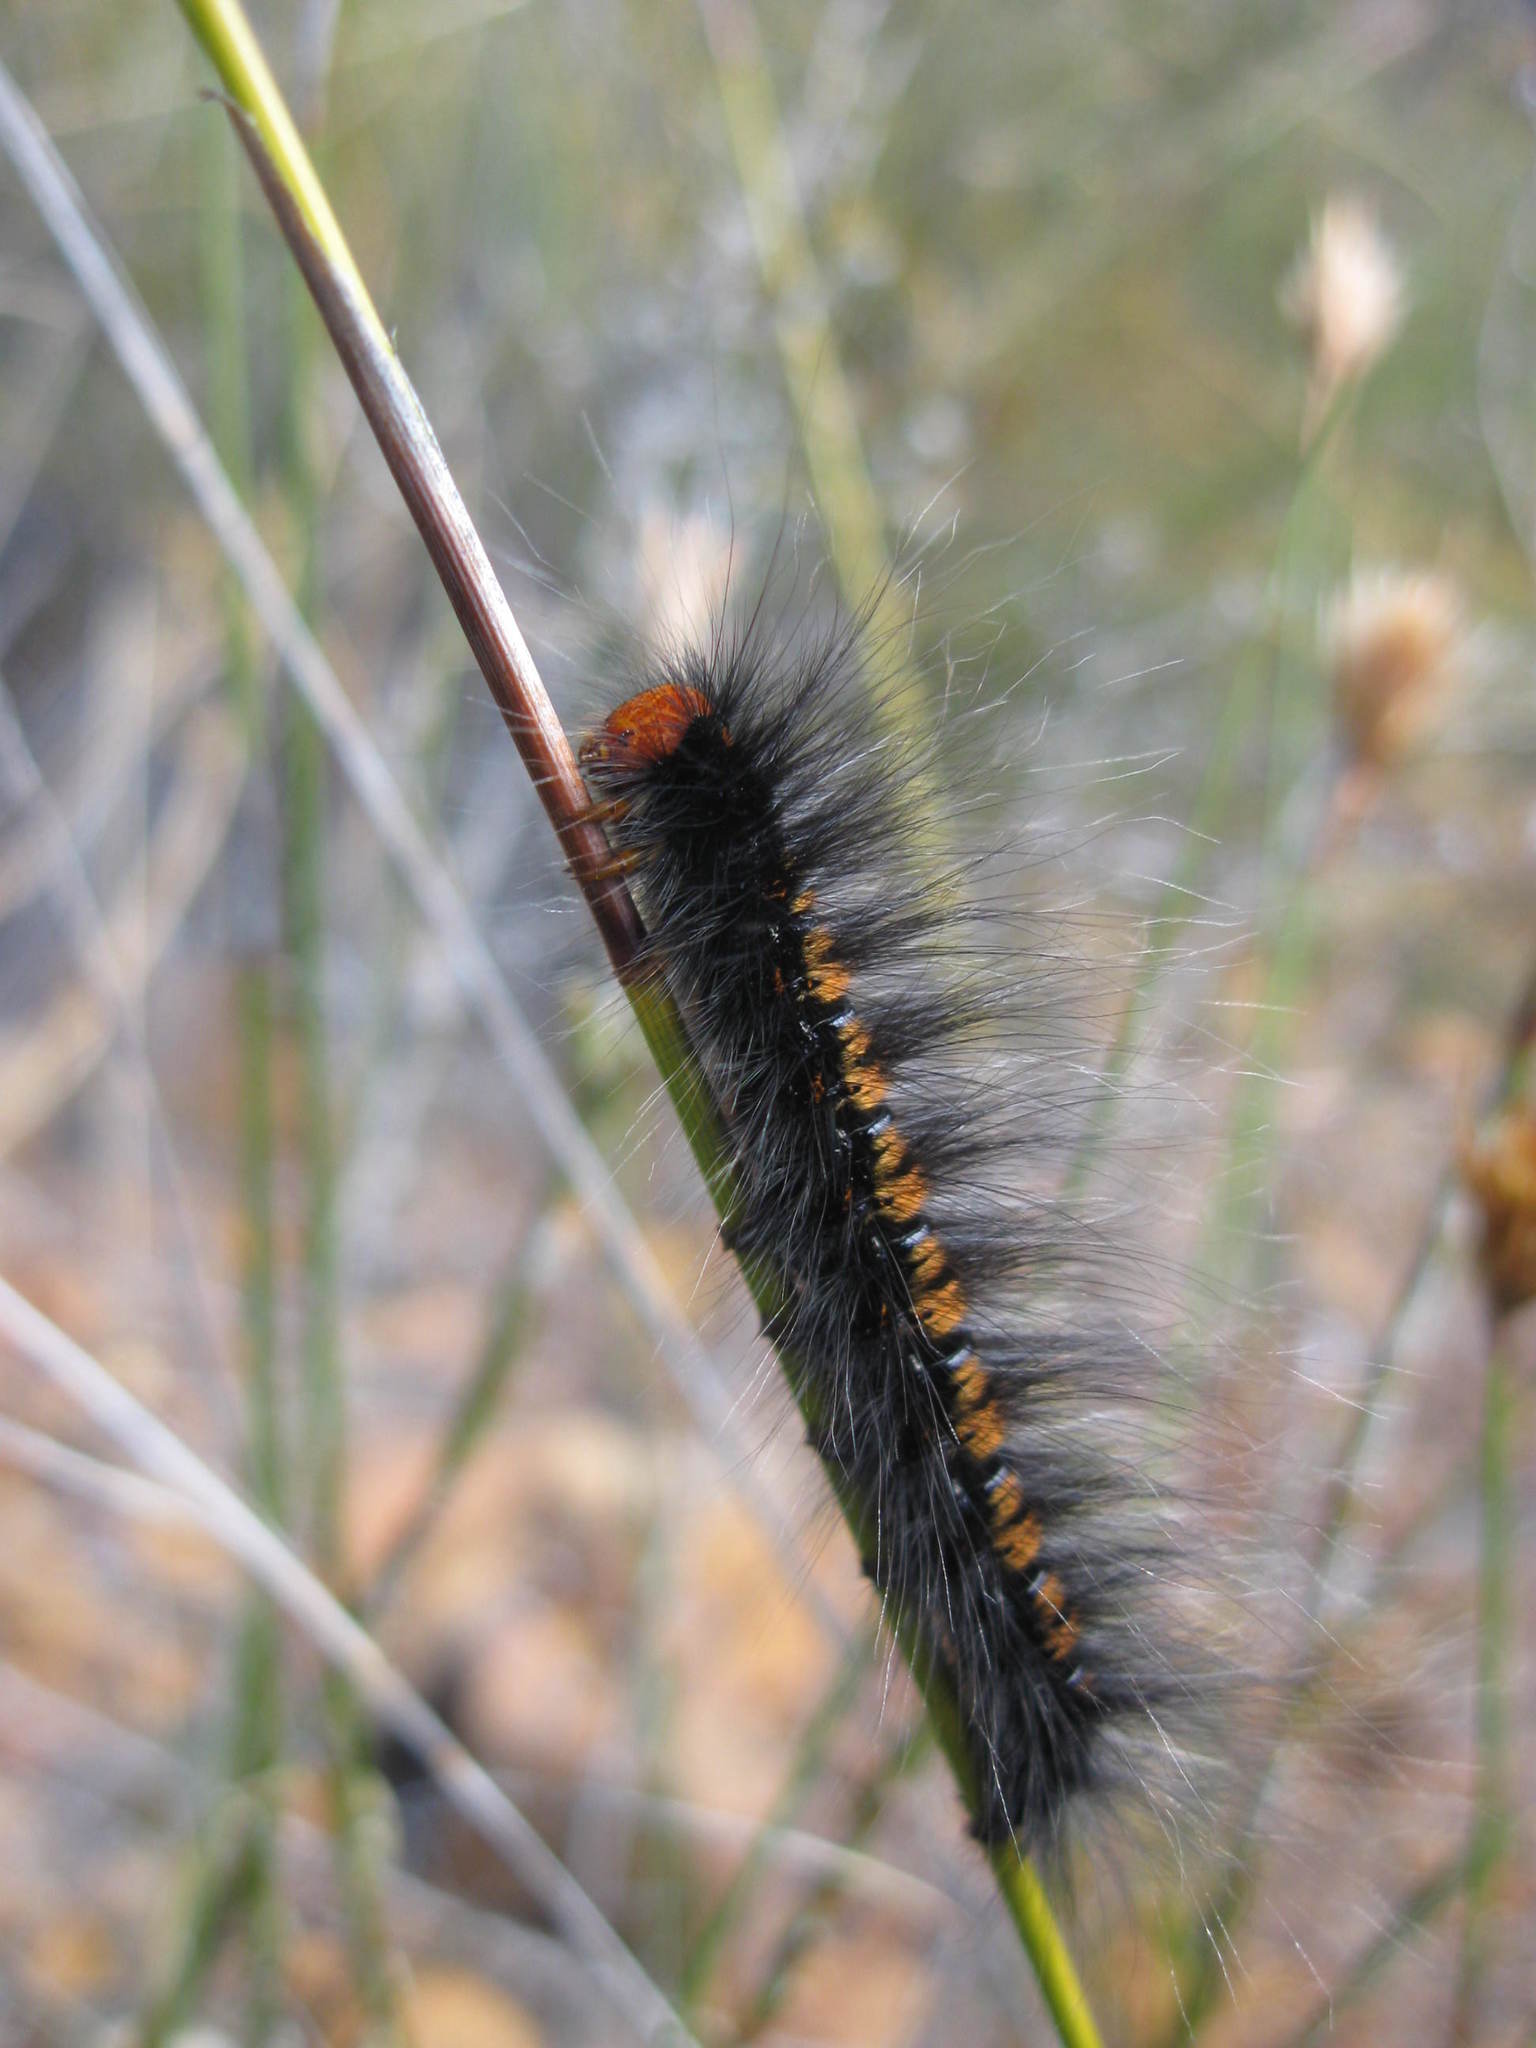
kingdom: Animalia
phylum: Arthropoda
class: Insecta
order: Lepidoptera
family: Lasiocampidae
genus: Mesocelis
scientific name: Mesocelis monticola
